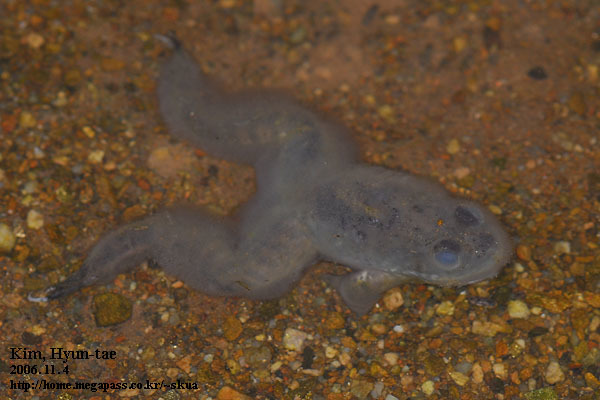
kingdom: Animalia
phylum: Chordata
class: Amphibia
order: Anura
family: Ranidae
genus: Lithobates
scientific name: Lithobates catesbeianus
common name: American bullfrog
